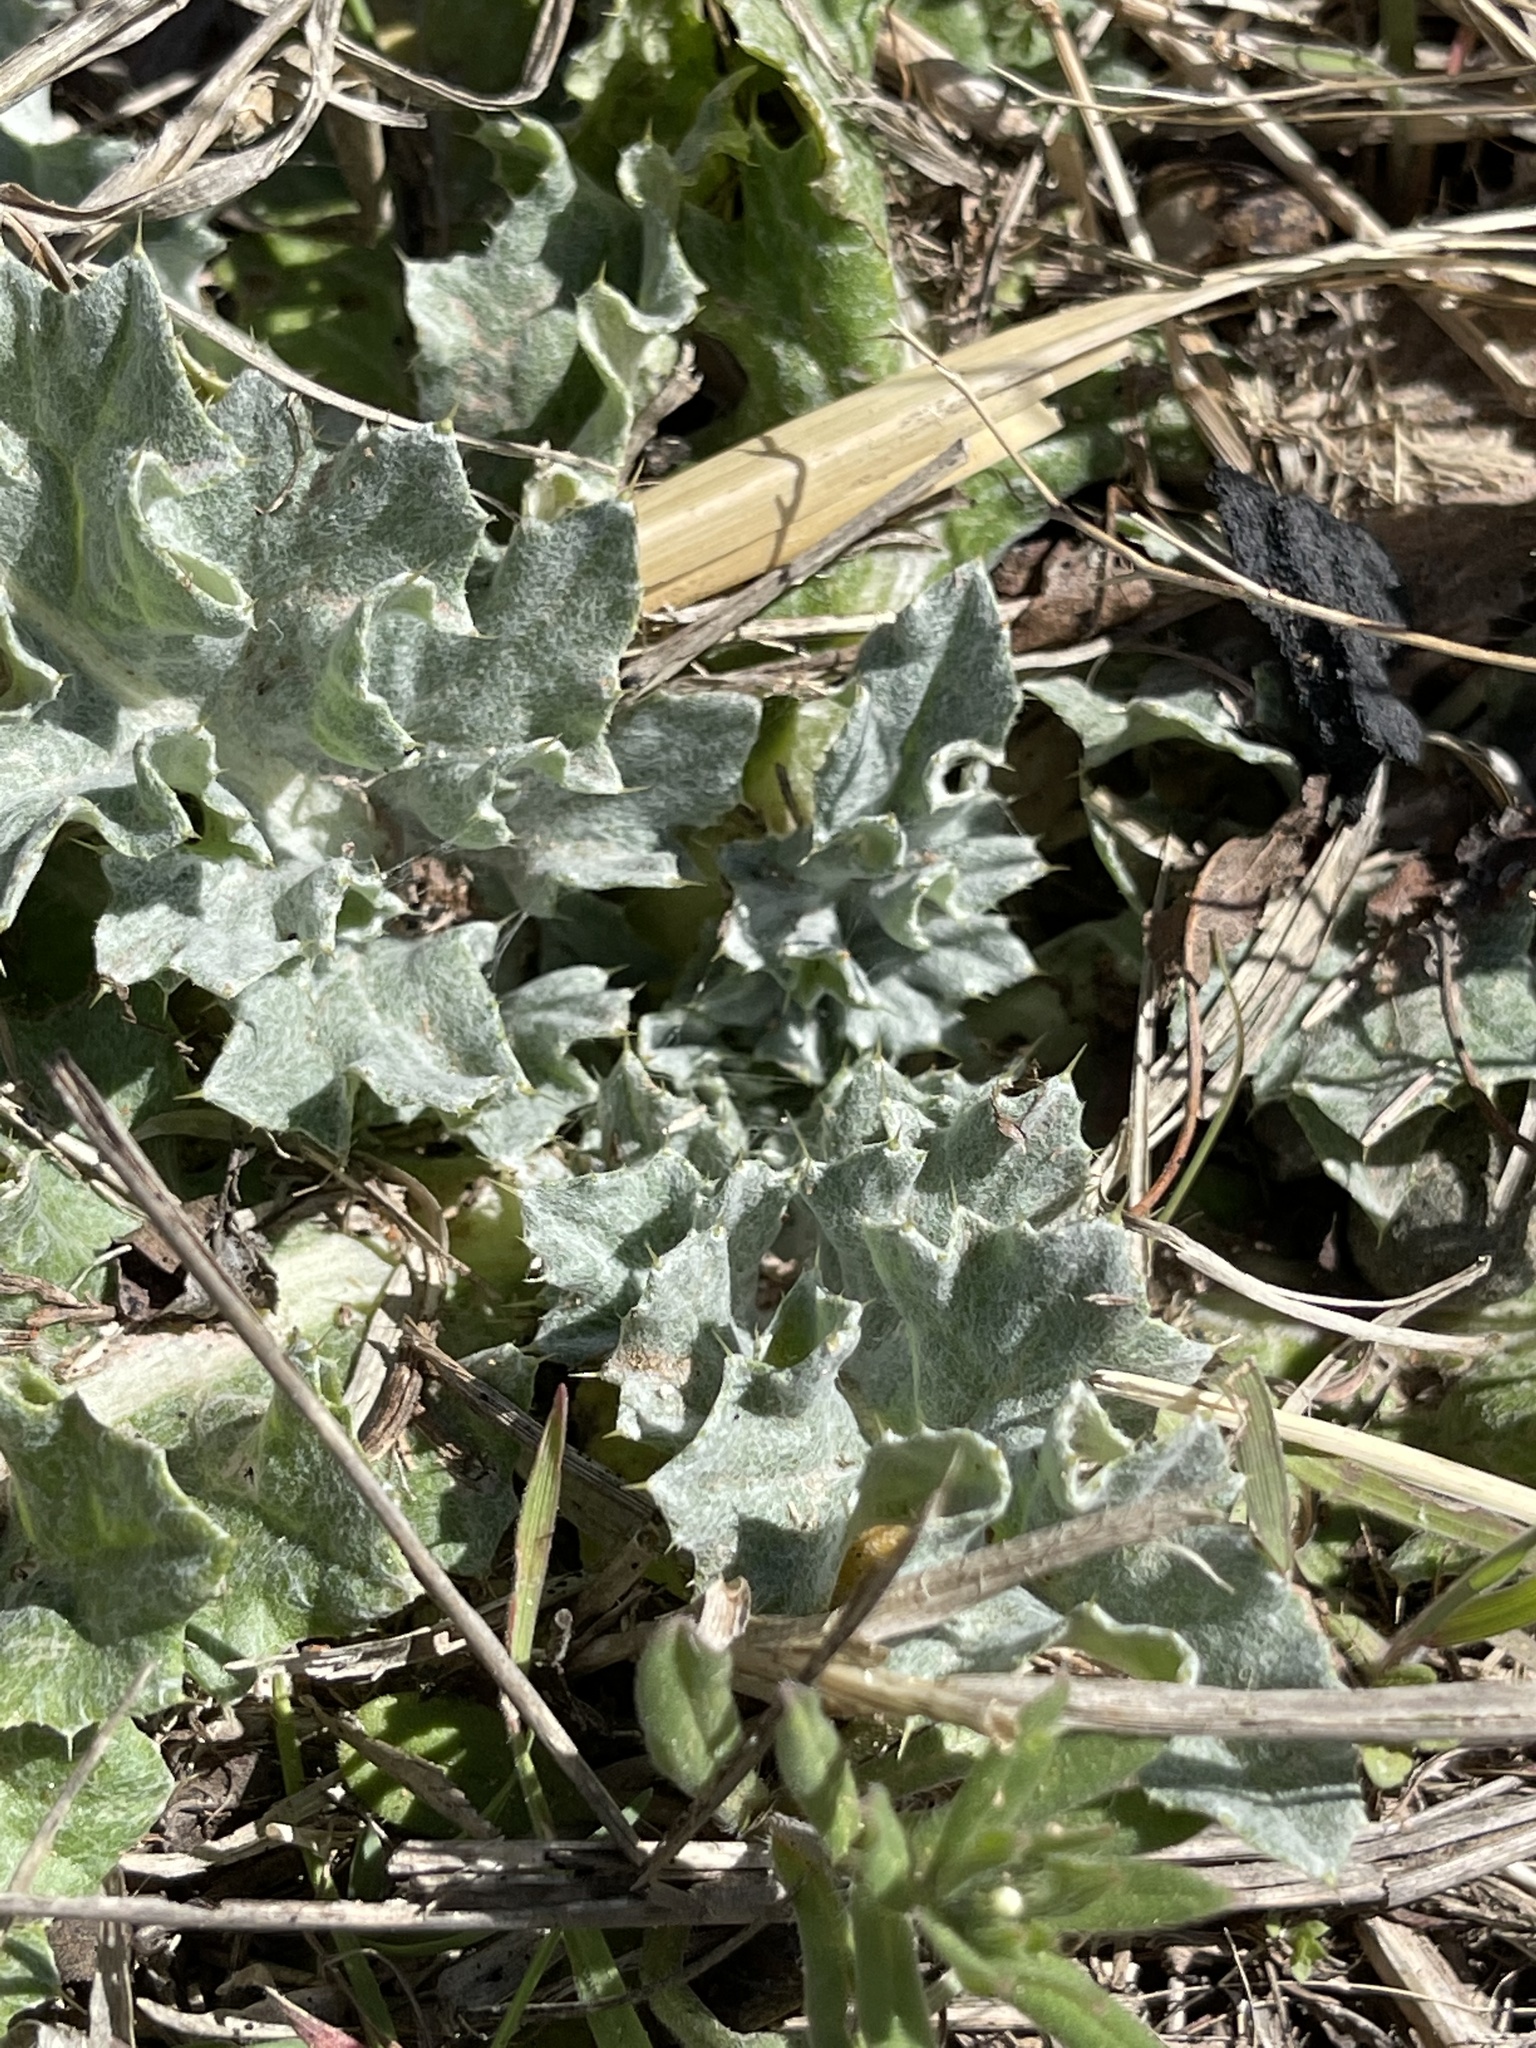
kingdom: Plantae
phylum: Tracheophyta
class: Magnoliopsida
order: Asterales
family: Asteraceae
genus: Cirsium
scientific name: Cirsium undulatum
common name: Pasture thistle
